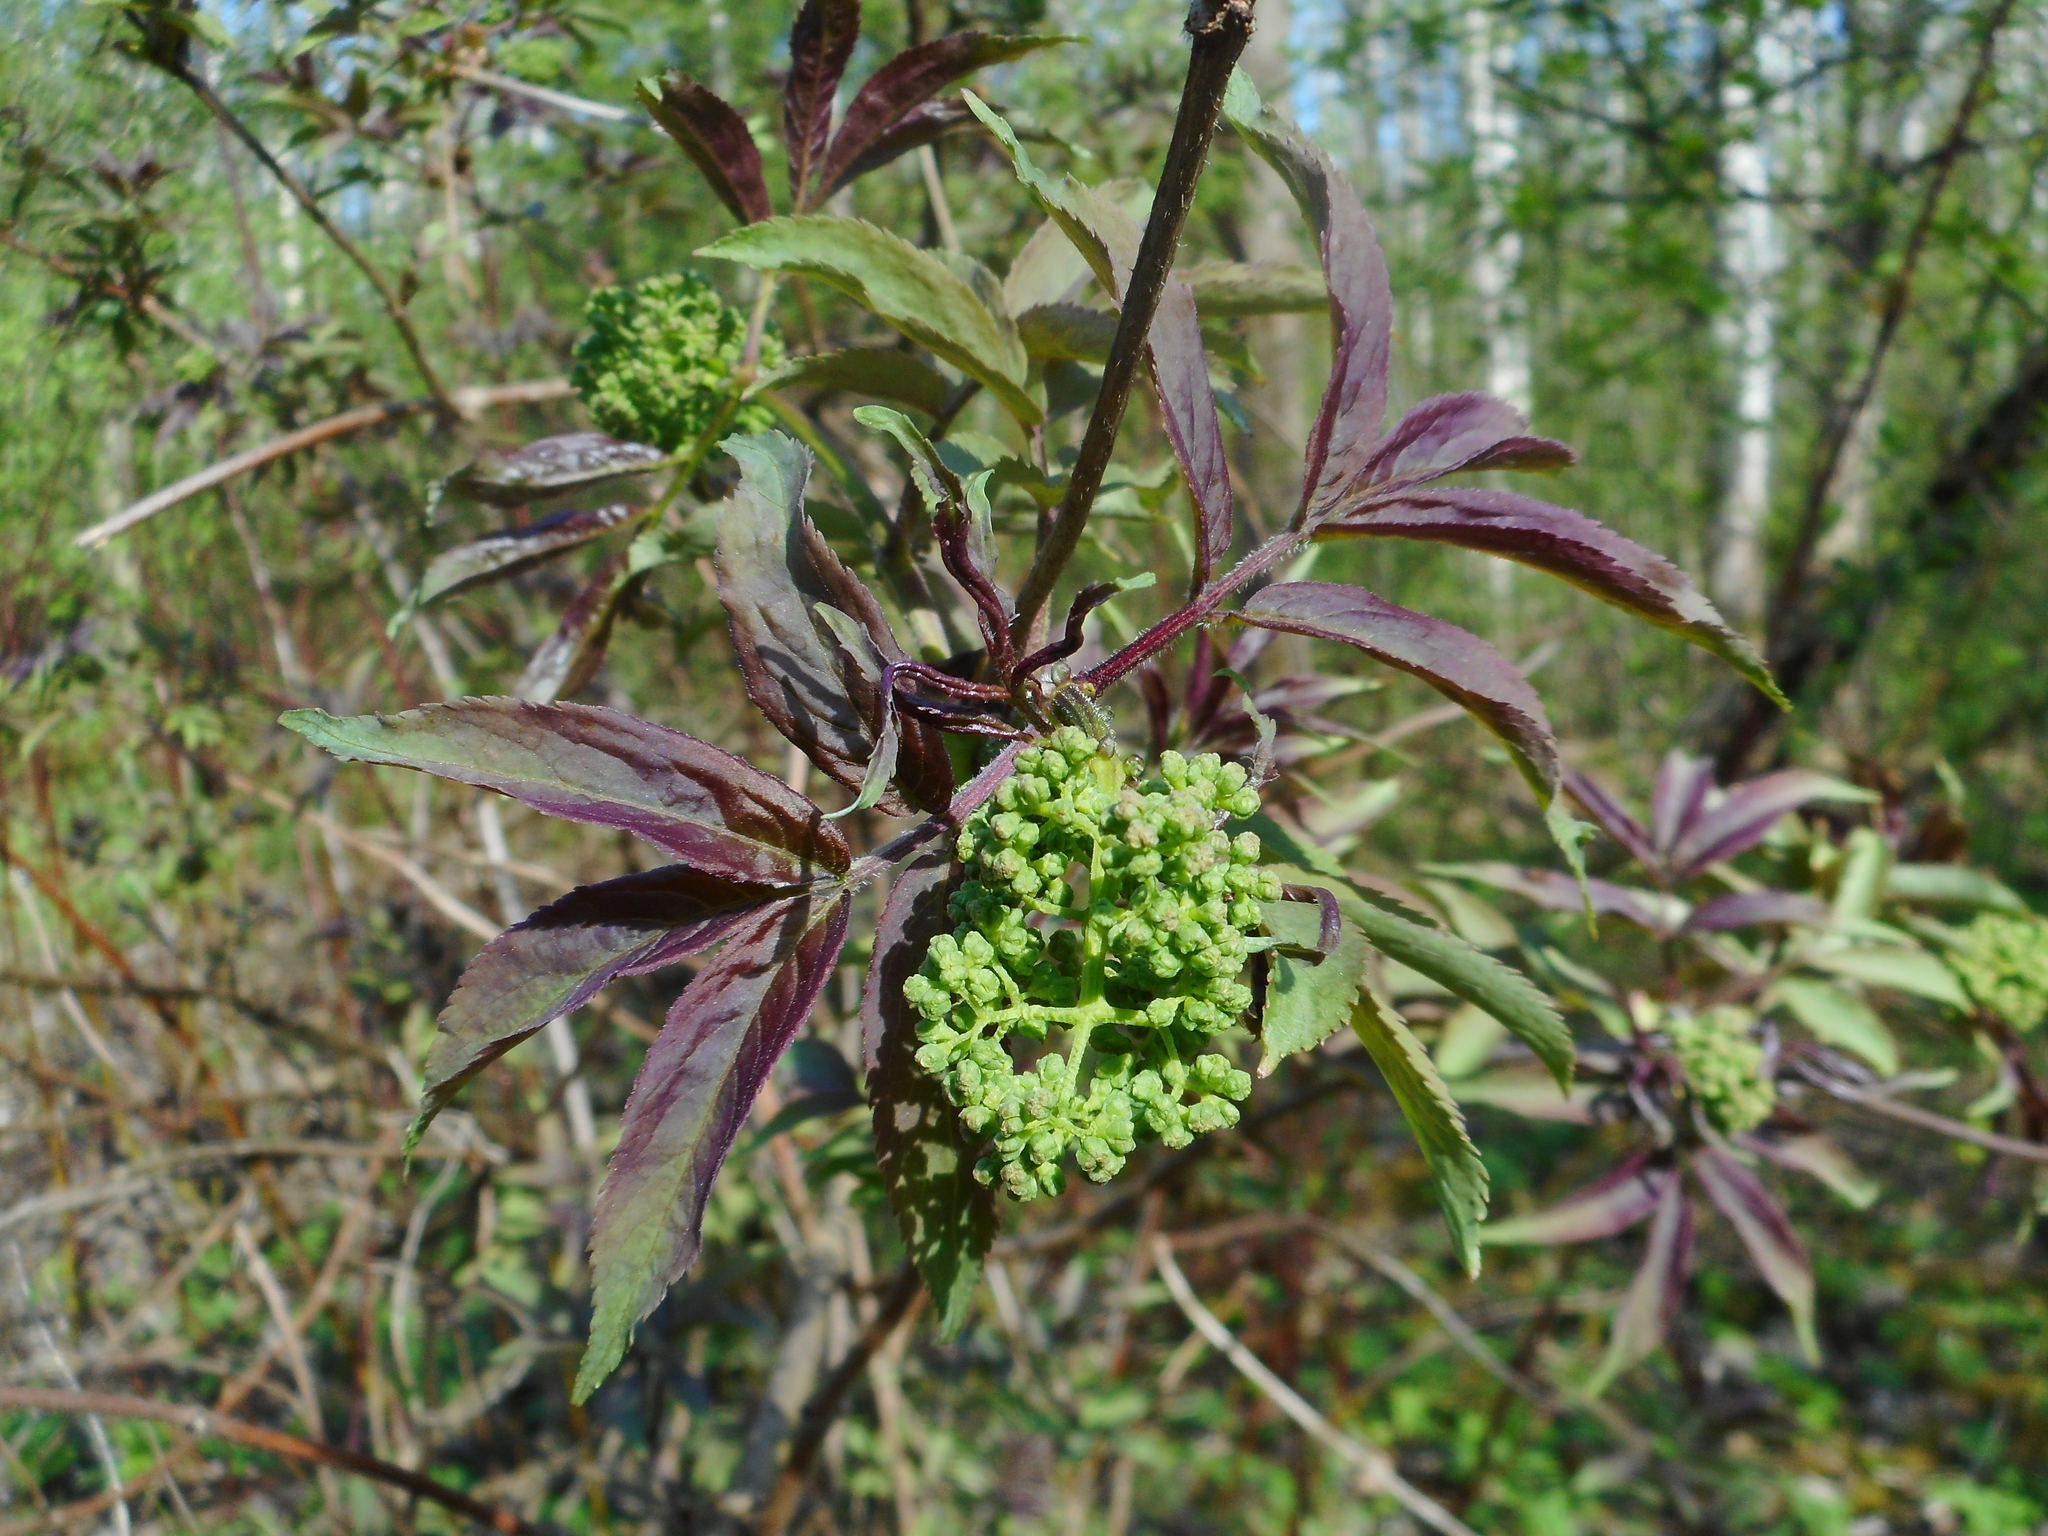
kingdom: Plantae
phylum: Tracheophyta
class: Magnoliopsida
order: Dipsacales
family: Viburnaceae
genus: Sambucus
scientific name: Sambucus racemosa
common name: Red-berried elder
